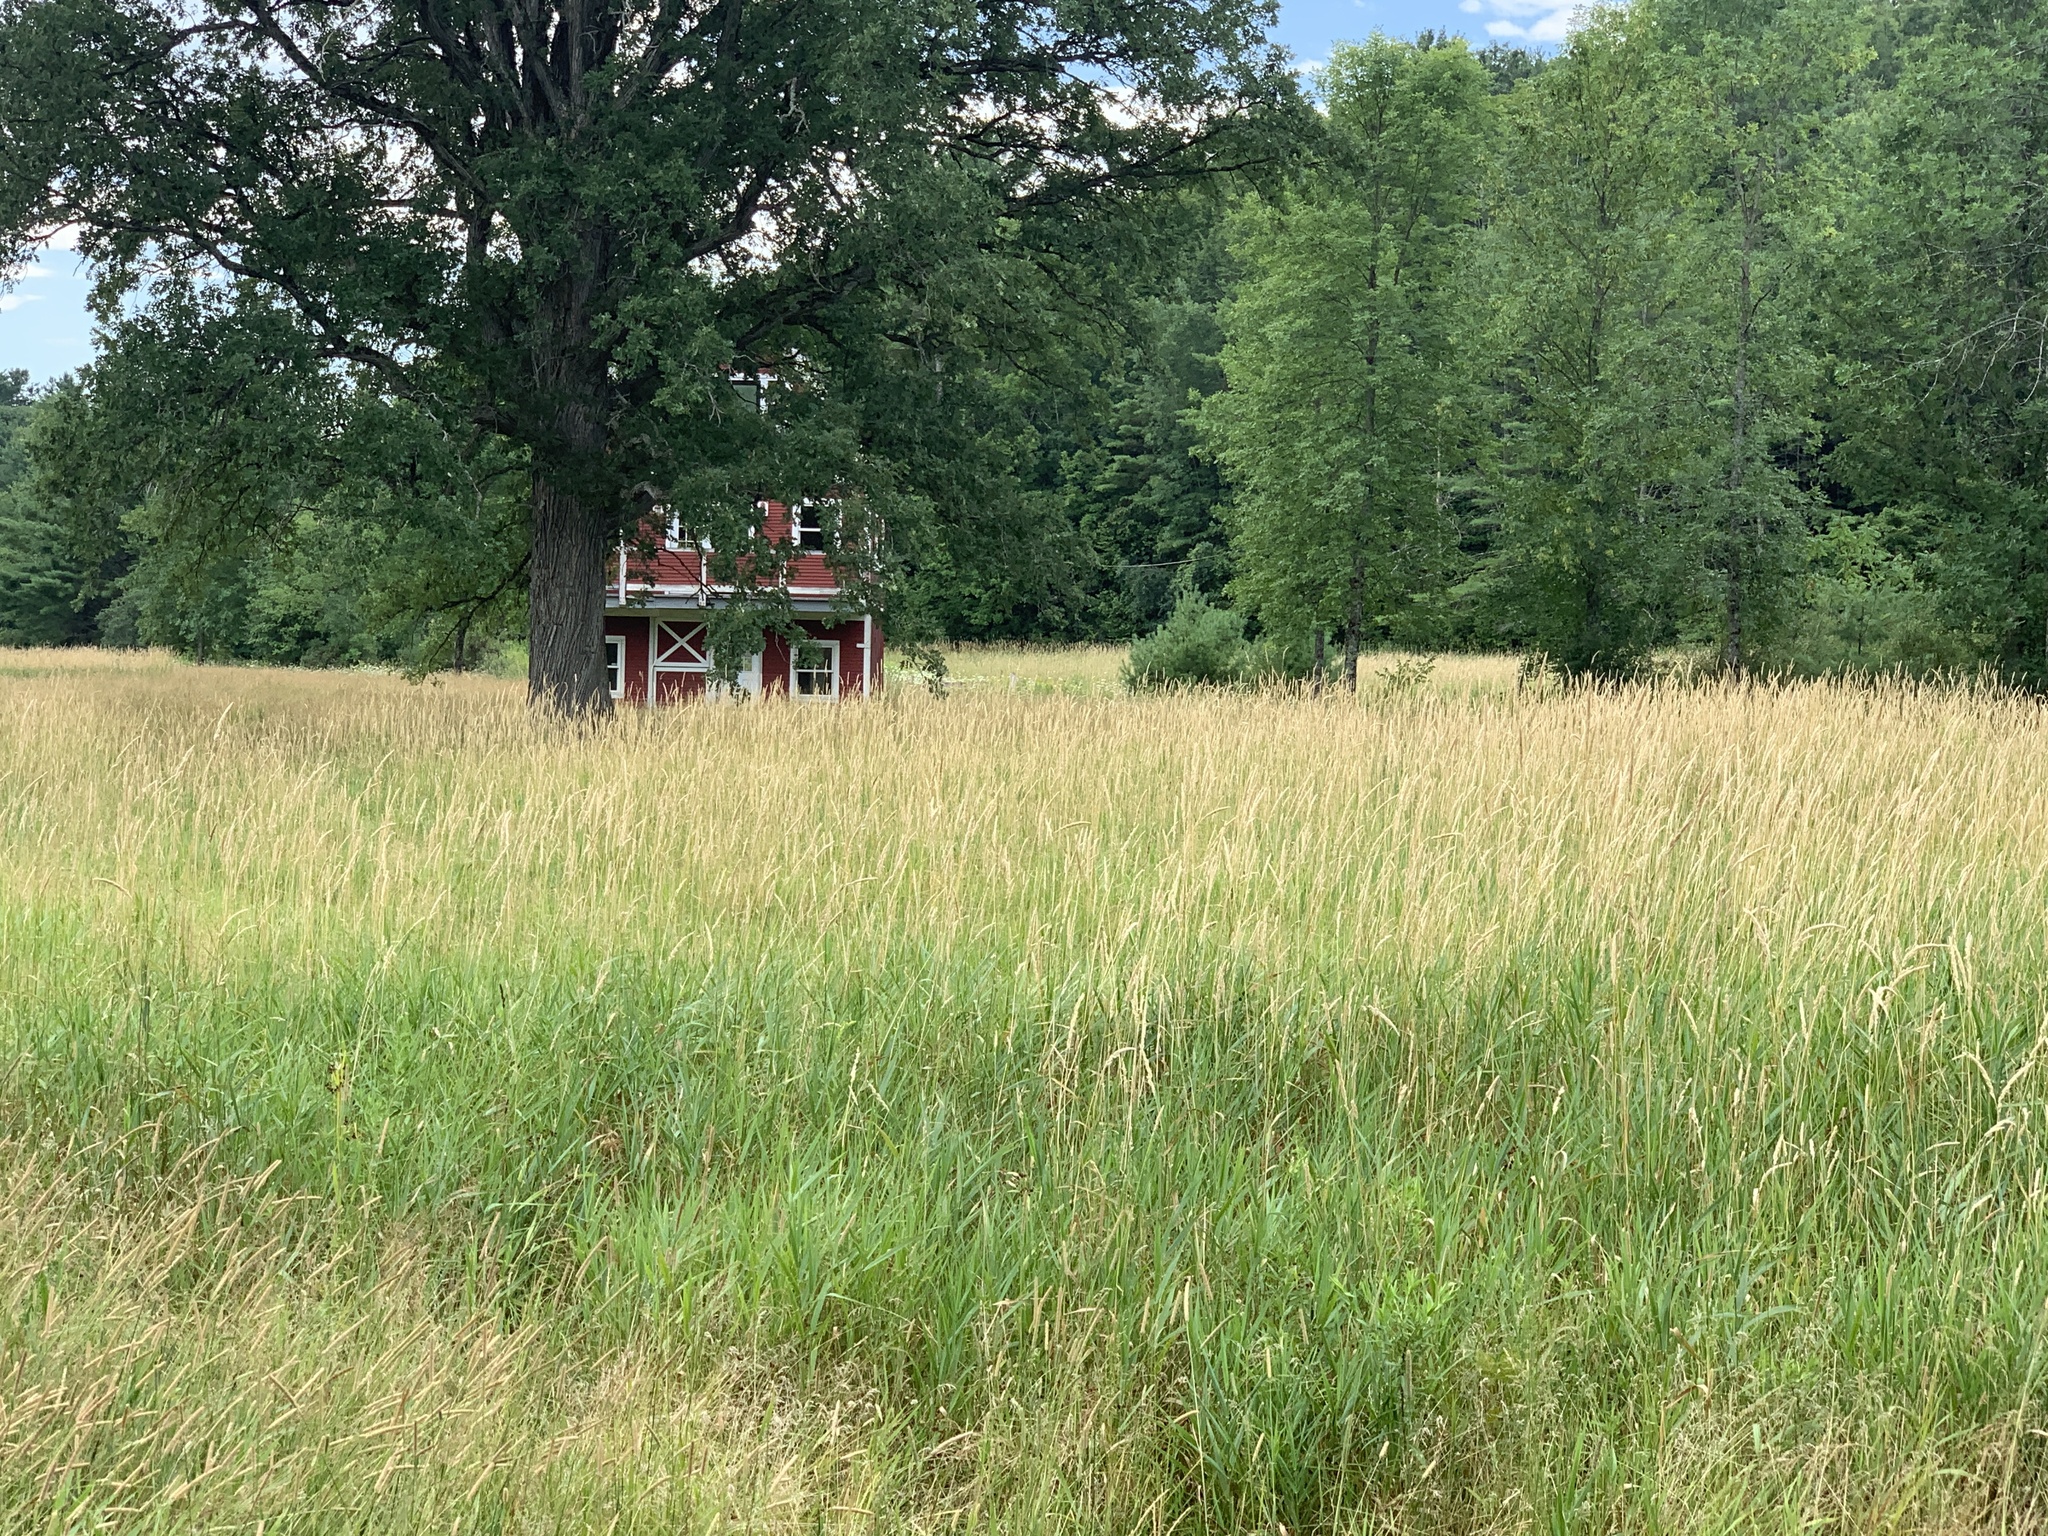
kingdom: Plantae
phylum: Tracheophyta
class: Liliopsida
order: Poales
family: Poaceae
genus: Phalaris
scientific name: Phalaris arundinacea
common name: Reed canary-grass
